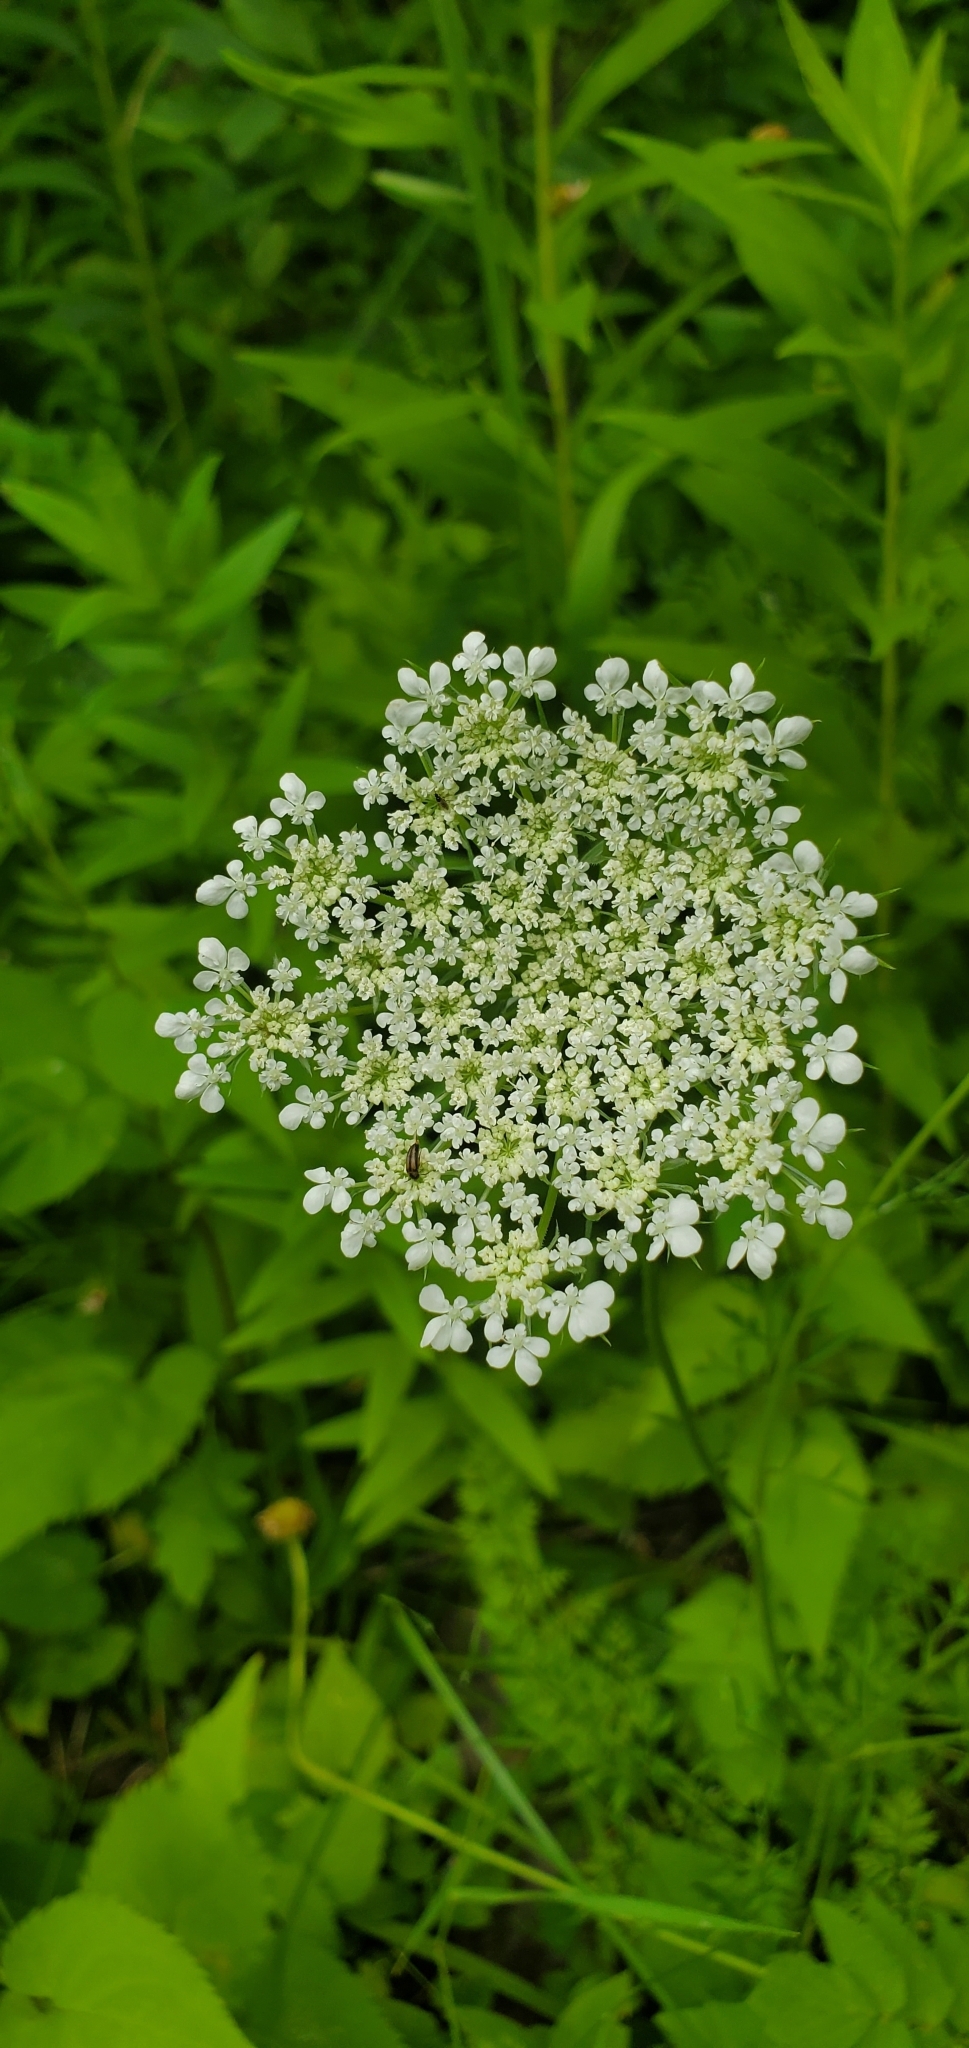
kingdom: Plantae
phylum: Tracheophyta
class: Magnoliopsida
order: Apiales
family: Apiaceae
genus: Daucus
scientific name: Daucus carota
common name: Wild carrot
